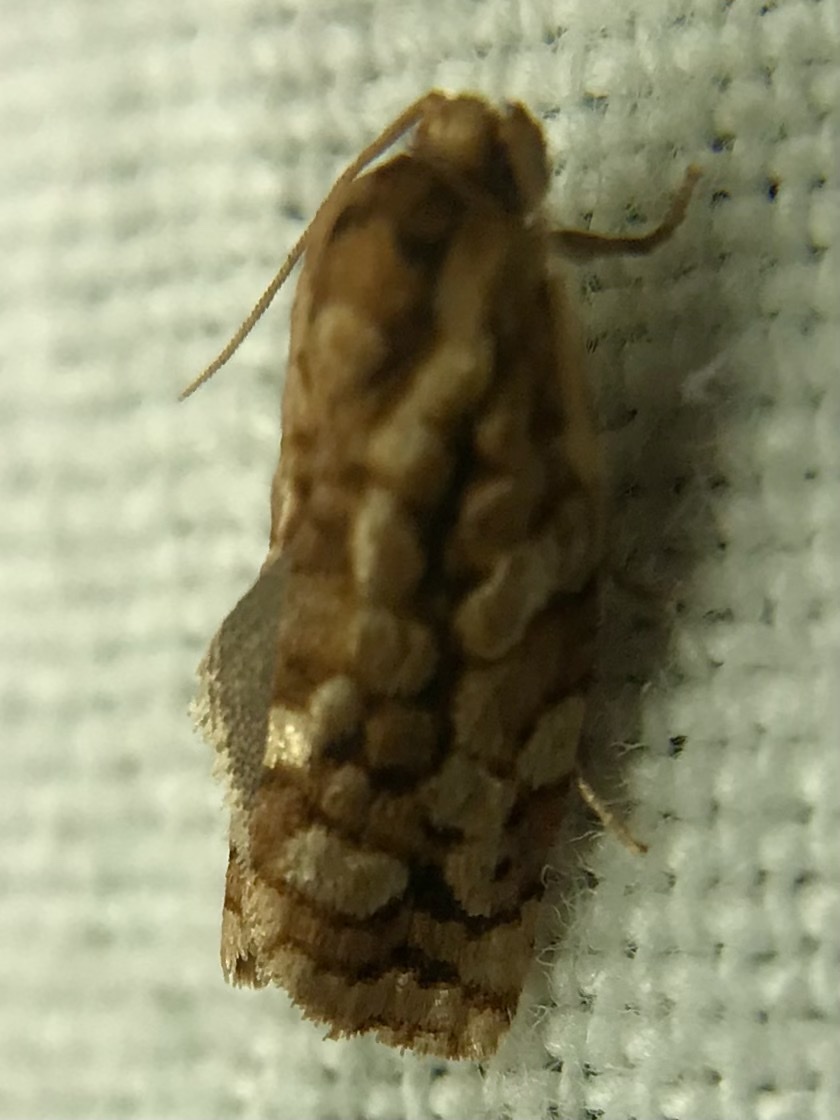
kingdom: Animalia
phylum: Arthropoda
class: Insecta
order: Lepidoptera
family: Tortricidae
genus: Choristoneura
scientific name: Choristoneura houstonana
